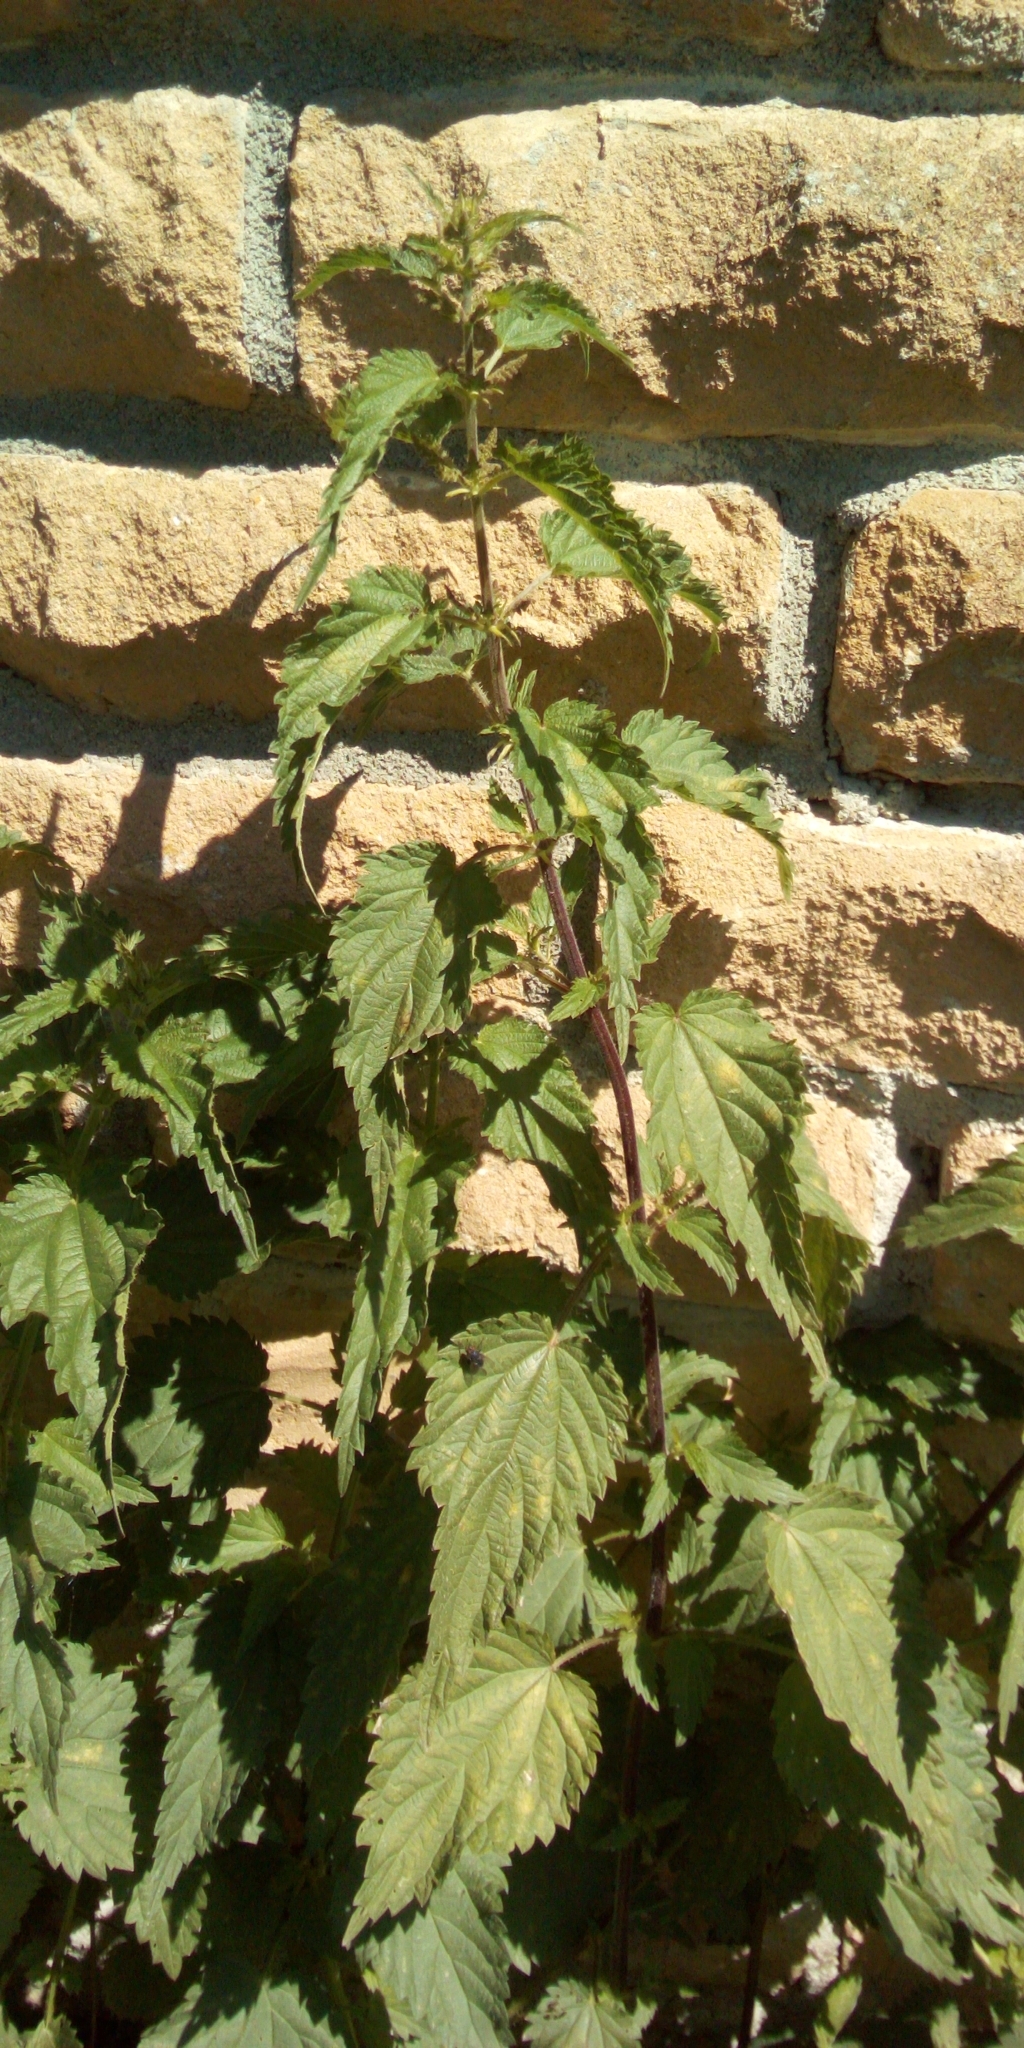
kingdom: Plantae
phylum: Tracheophyta
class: Magnoliopsida
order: Rosales
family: Urticaceae
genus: Urtica
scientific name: Urtica dioica
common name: Common nettle
